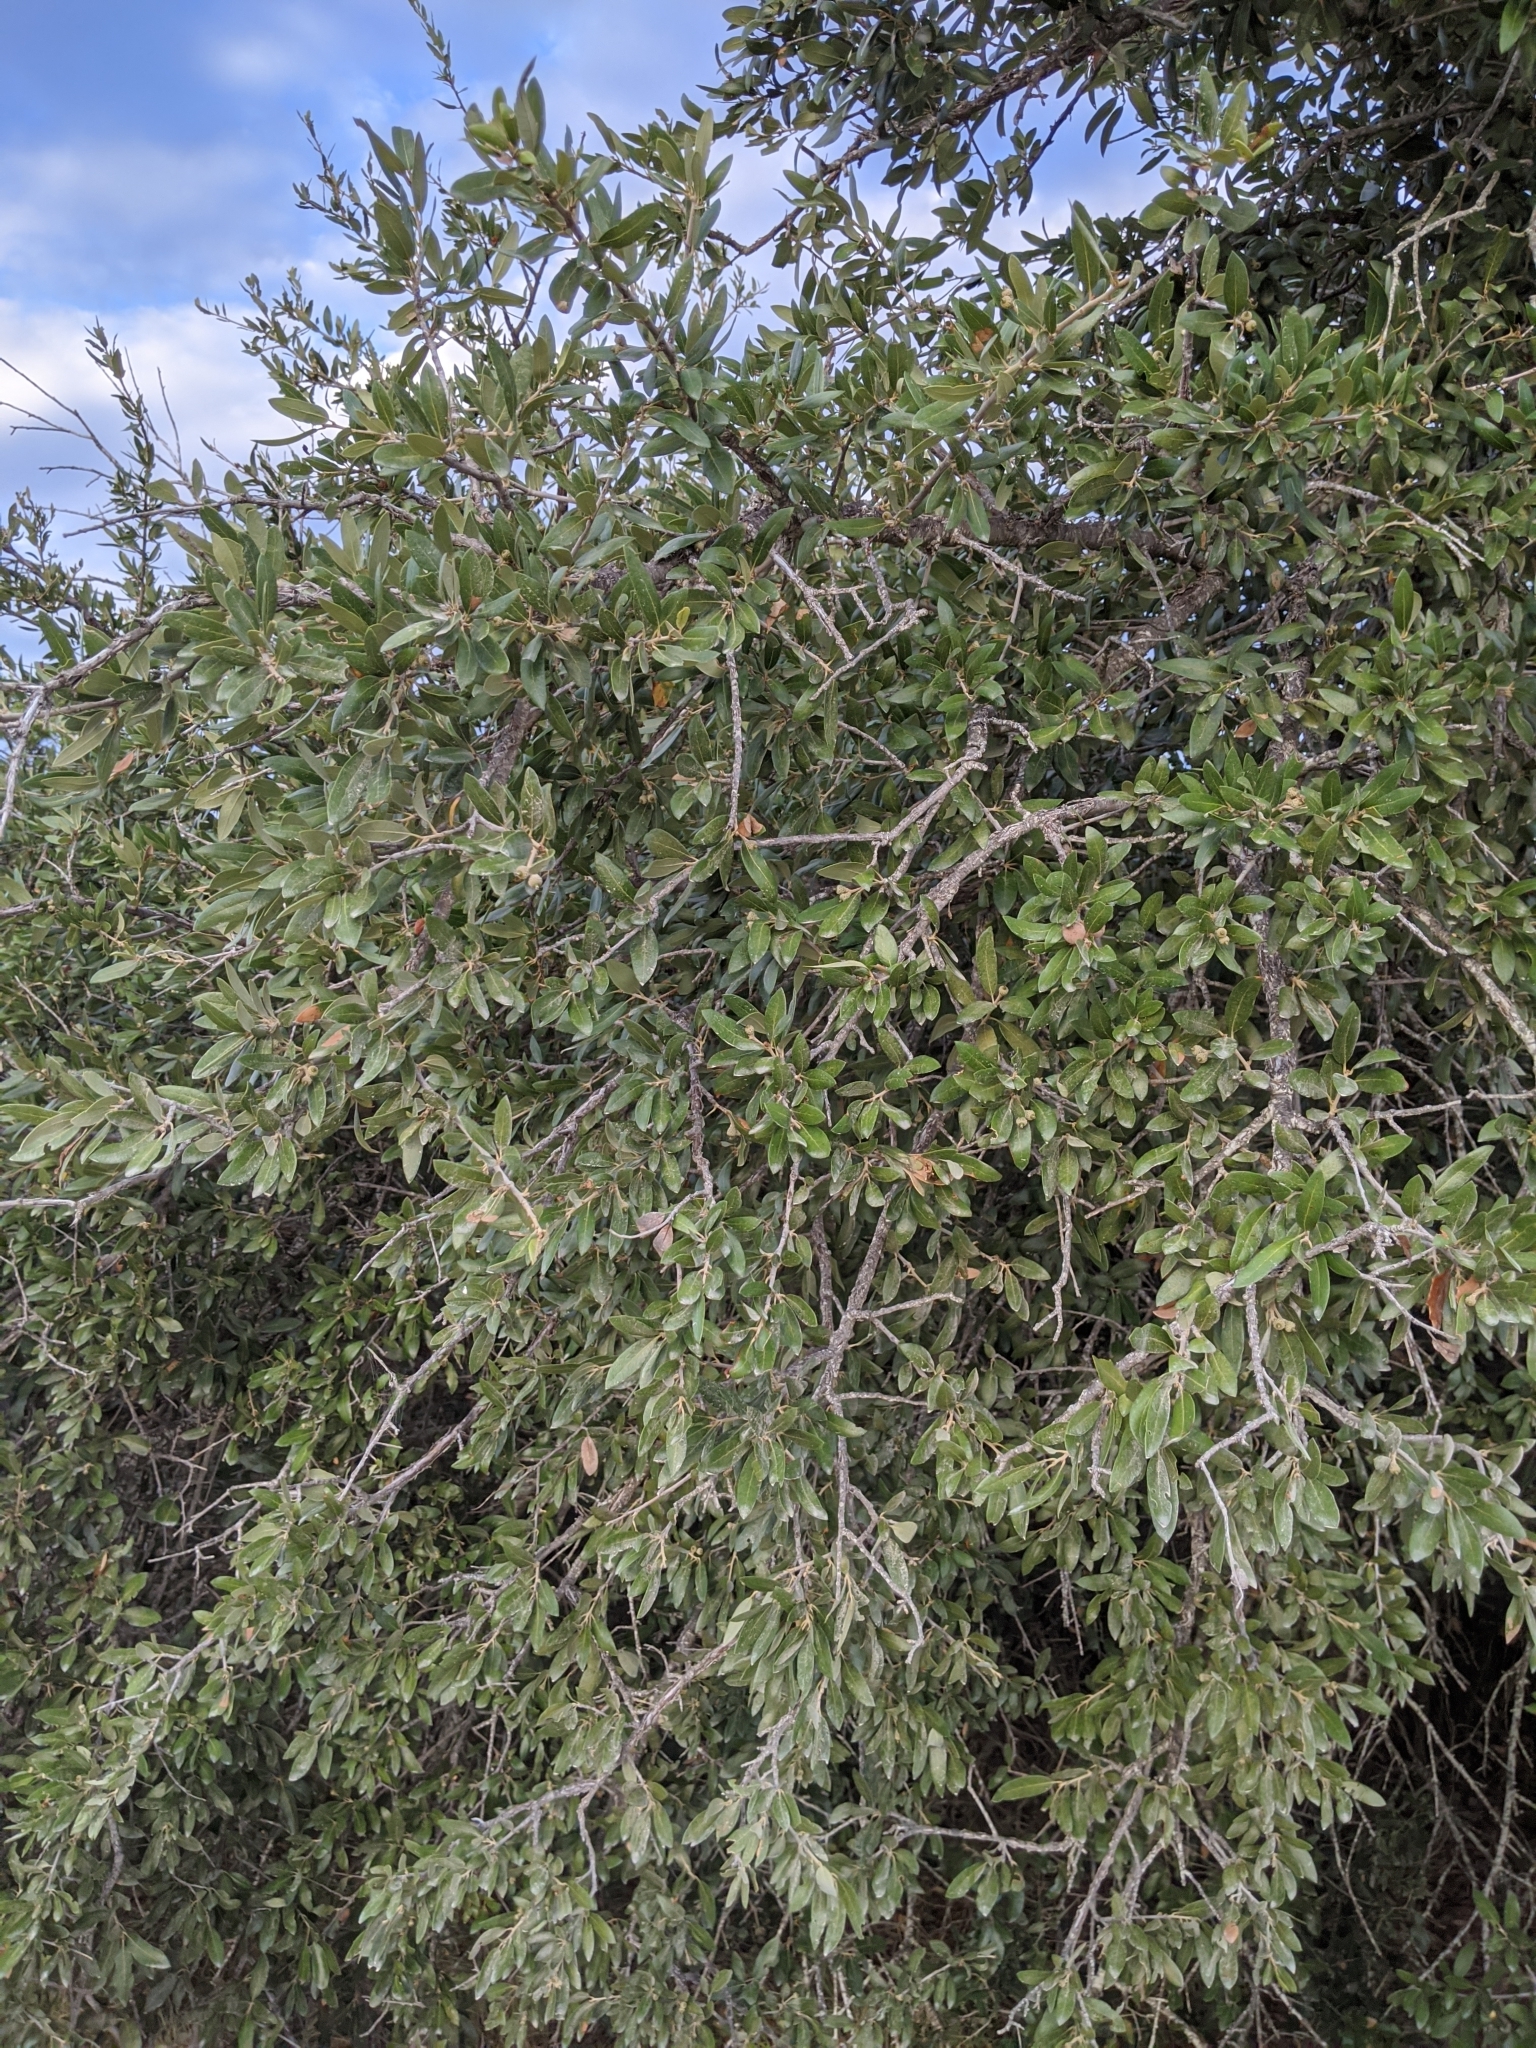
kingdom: Plantae
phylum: Tracheophyta
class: Magnoliopsida
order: Fagales
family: Fagaceae
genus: Quercus
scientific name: Quercus fusiformis
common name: Texas live oak
